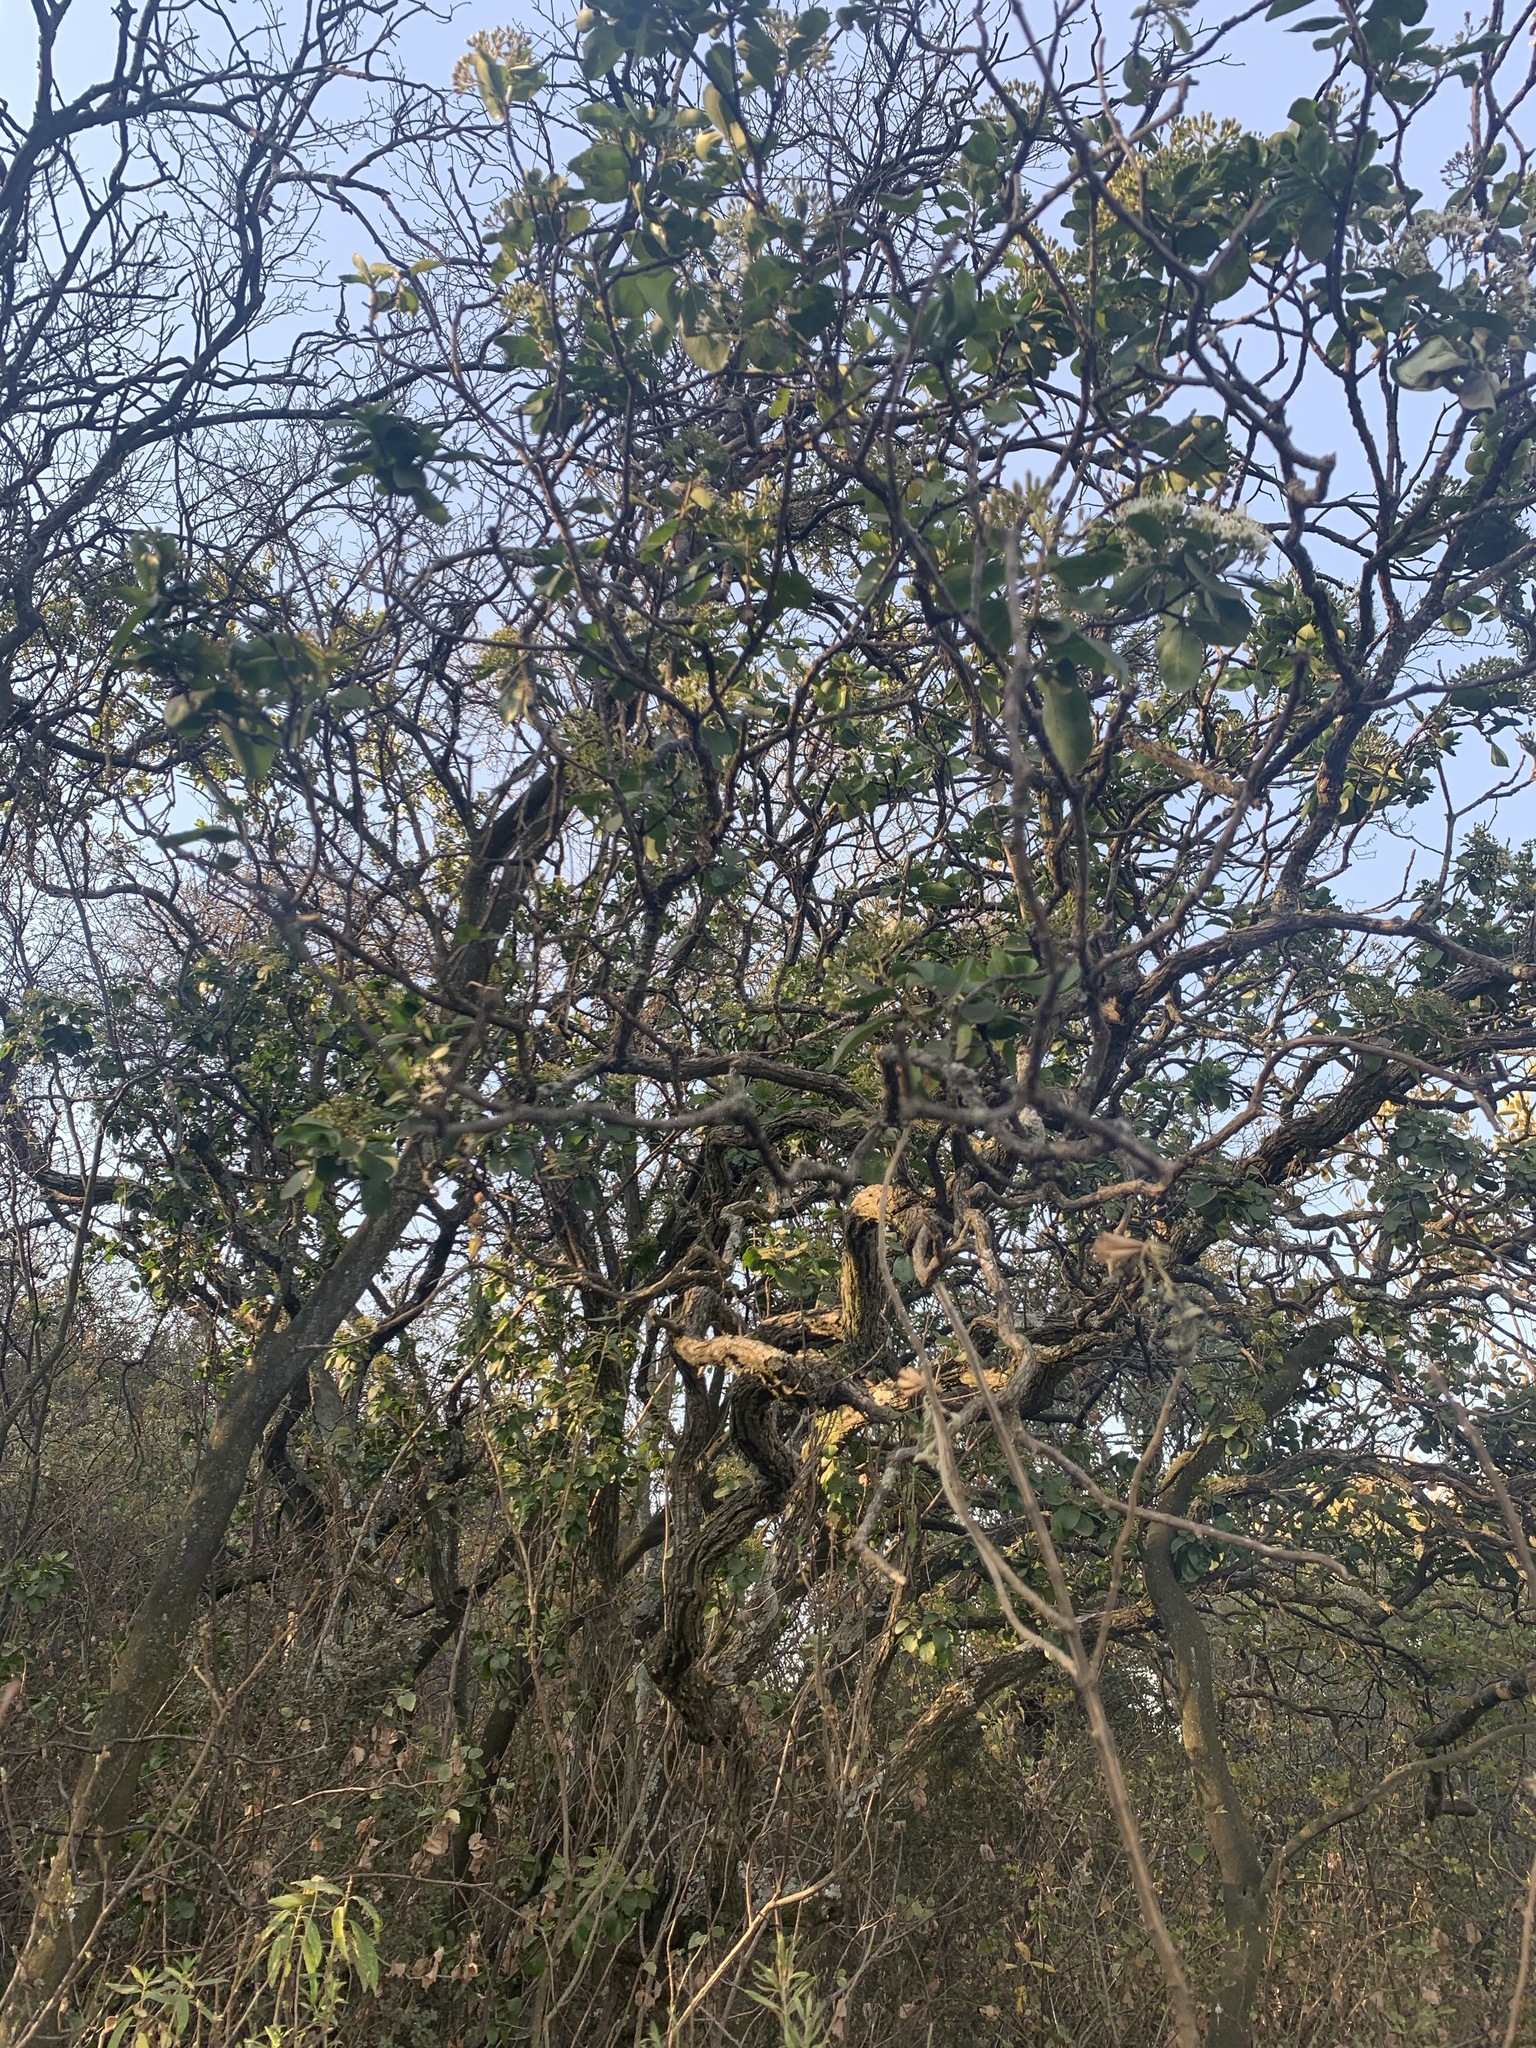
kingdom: Plantae
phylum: Tracheophyta
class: Magnoliopsida
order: Lamiales
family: Stilbaceae
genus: Nuxia
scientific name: Nuxia congesta
